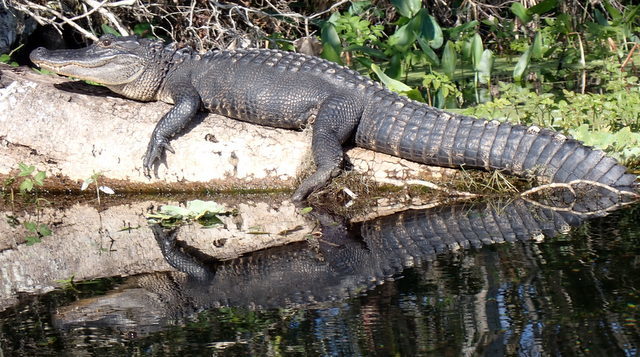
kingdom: Animalia
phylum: Chordata
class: Crocodylia
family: Alligatoridae
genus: Alligator
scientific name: Alligator mississippiensis
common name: American alligator
